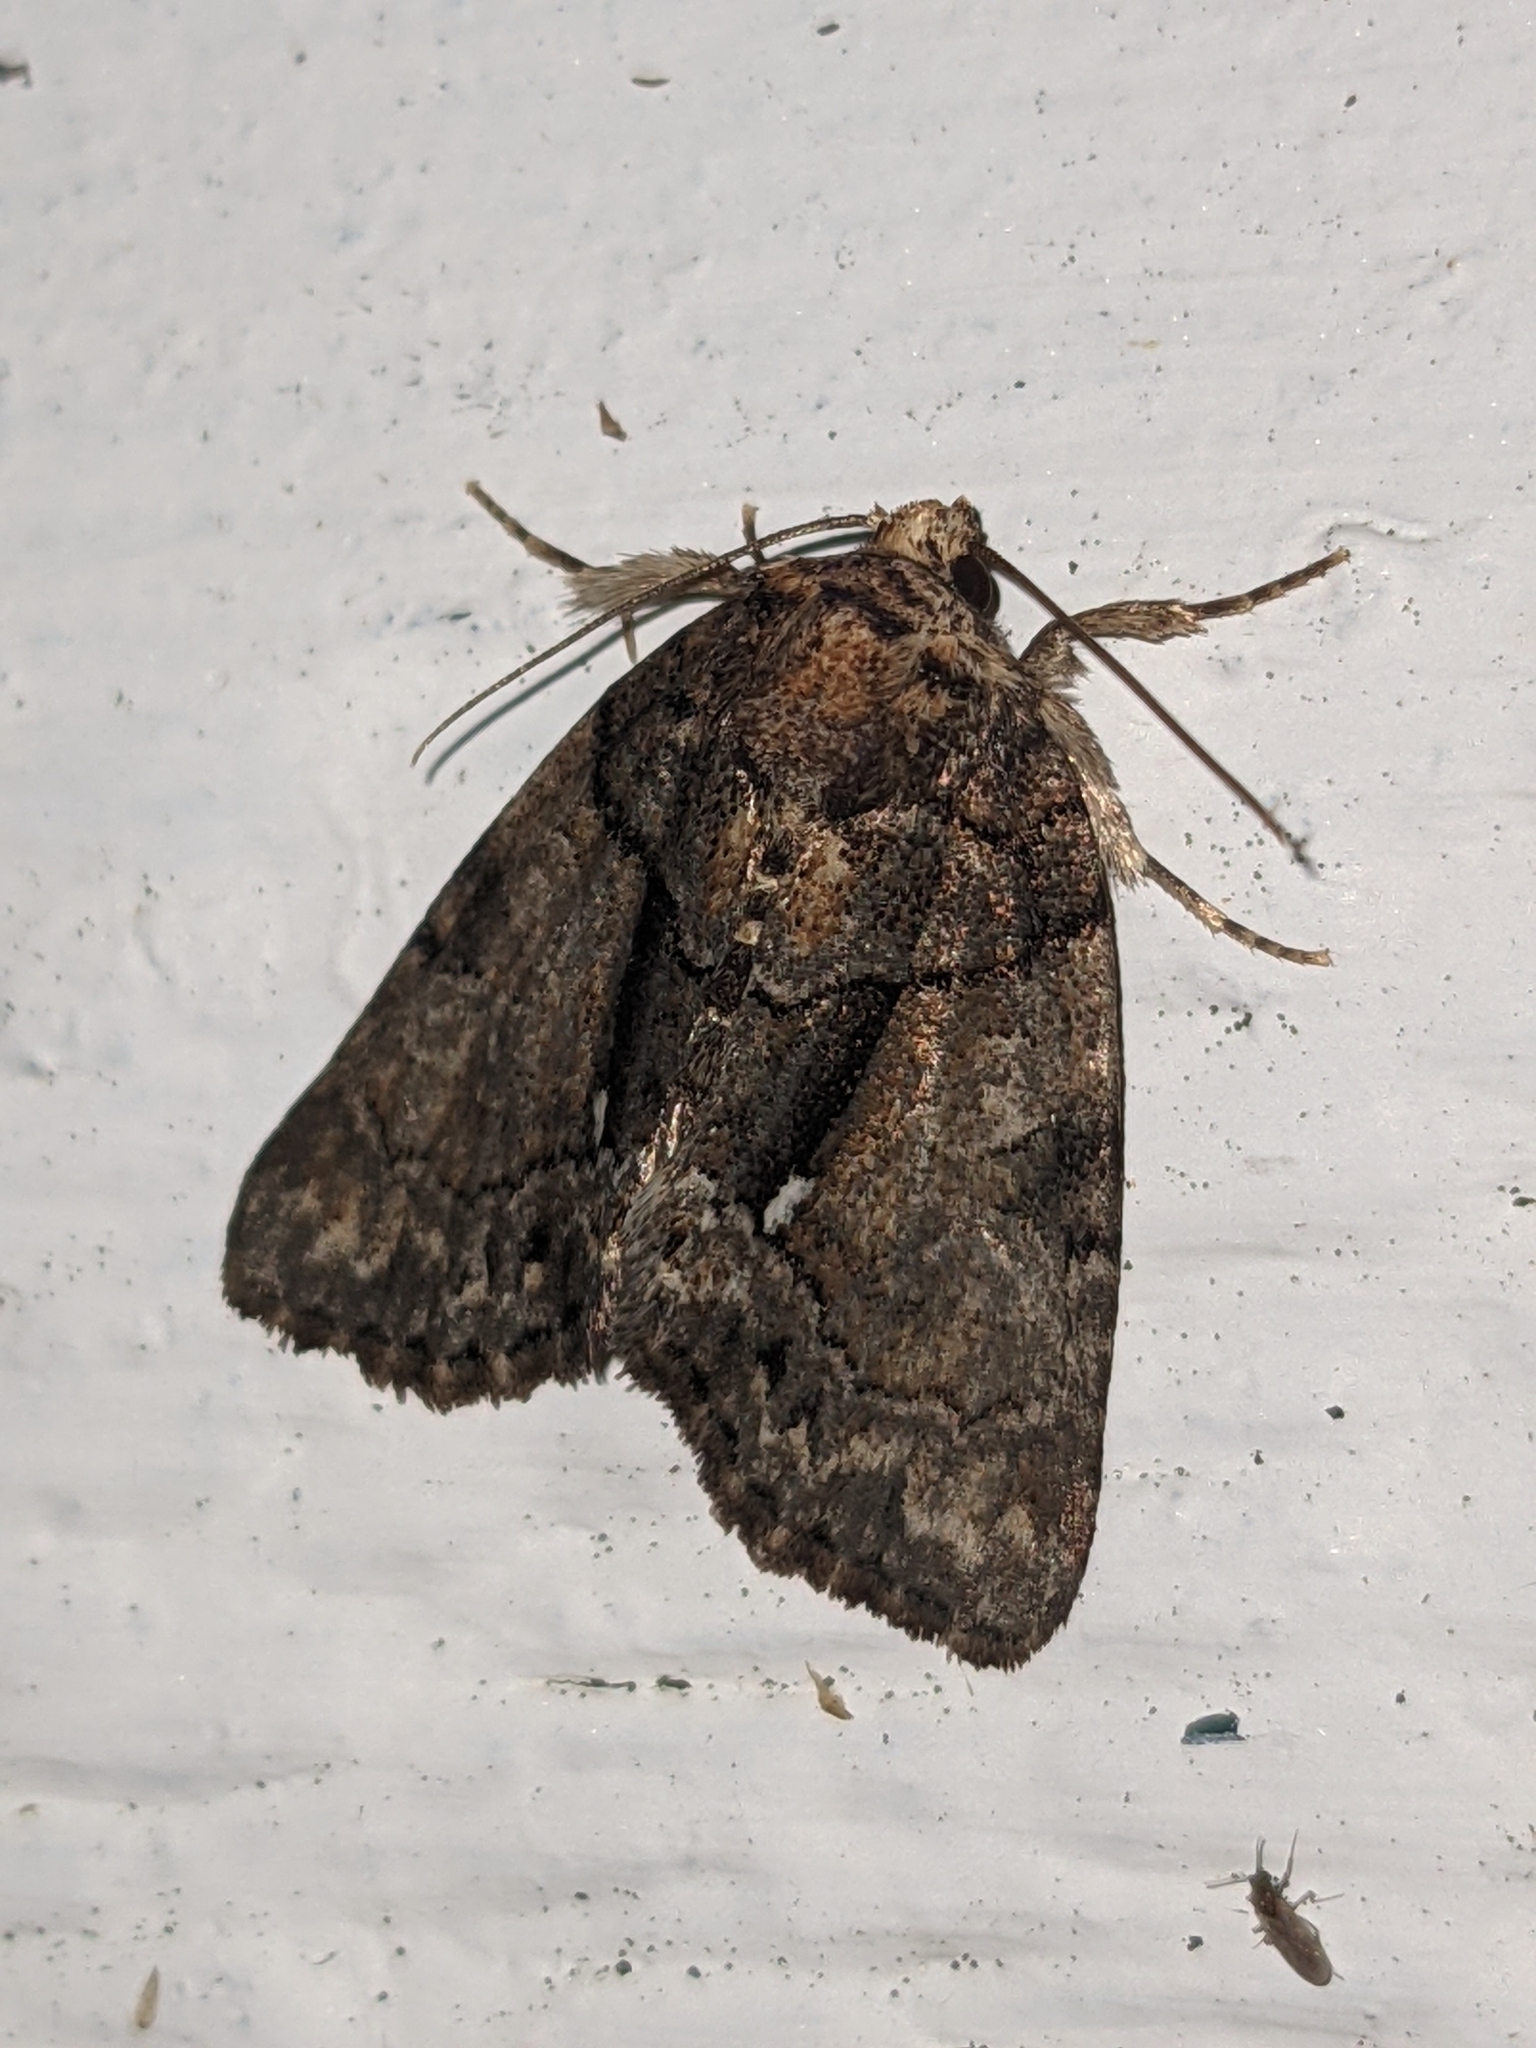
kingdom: Animalia
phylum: Arthropoda
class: Insecta
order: Lepidoptera
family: Noctuidae
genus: Chytonix
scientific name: Chytonix palliatricula
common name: Cloaked marvel
